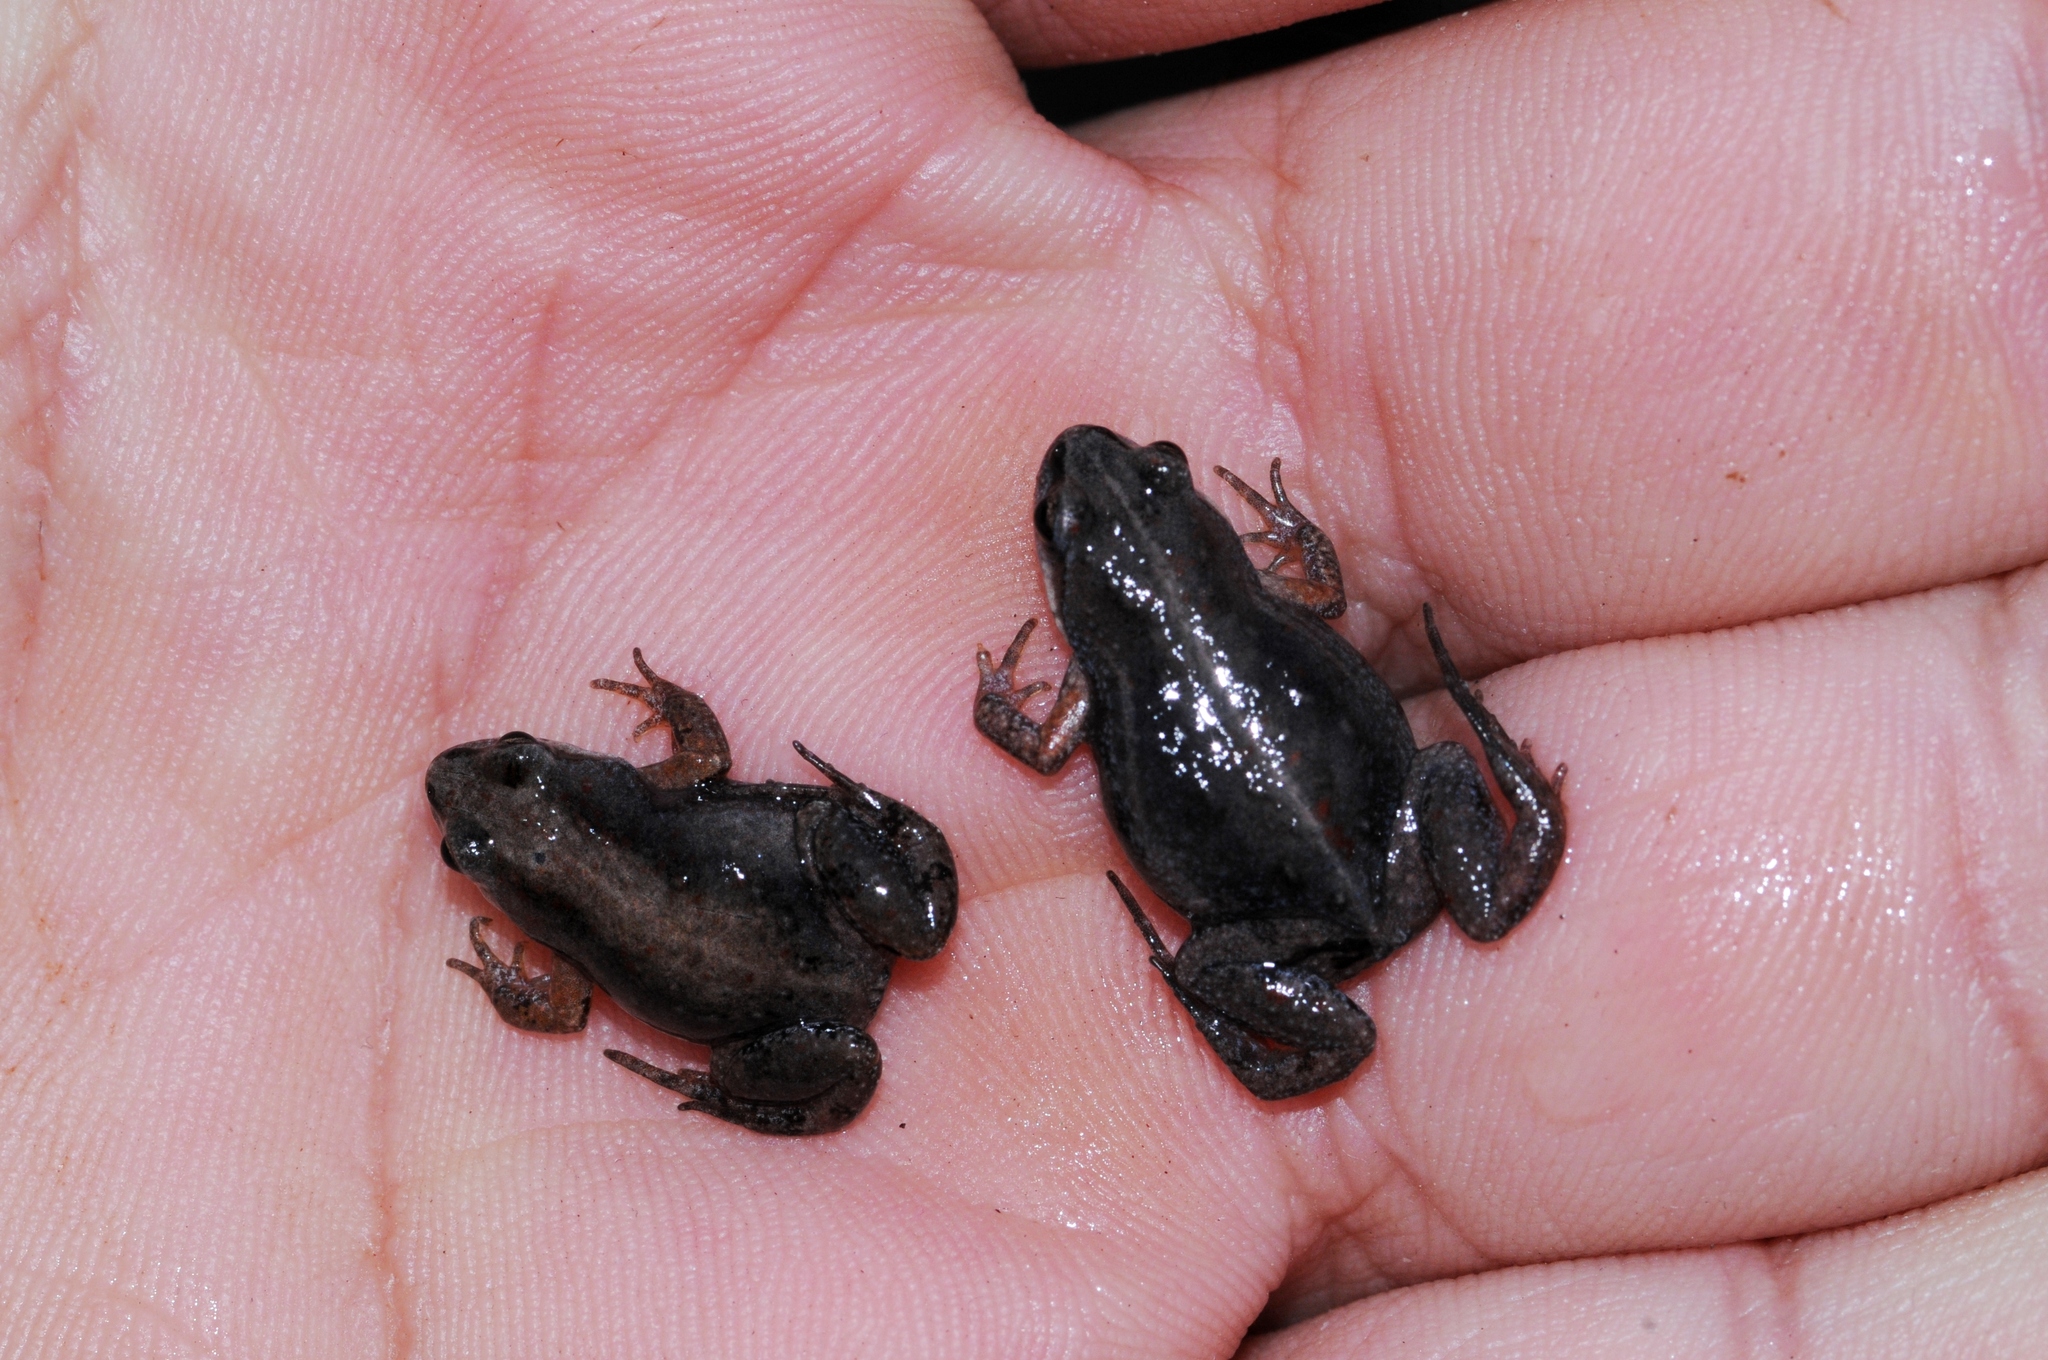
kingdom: Animalia
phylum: Chordata
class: Amphibia
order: Anura
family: Pyxicephalidae
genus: Cacosternum
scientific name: Cacosternum platys
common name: Smooth dainty frog
